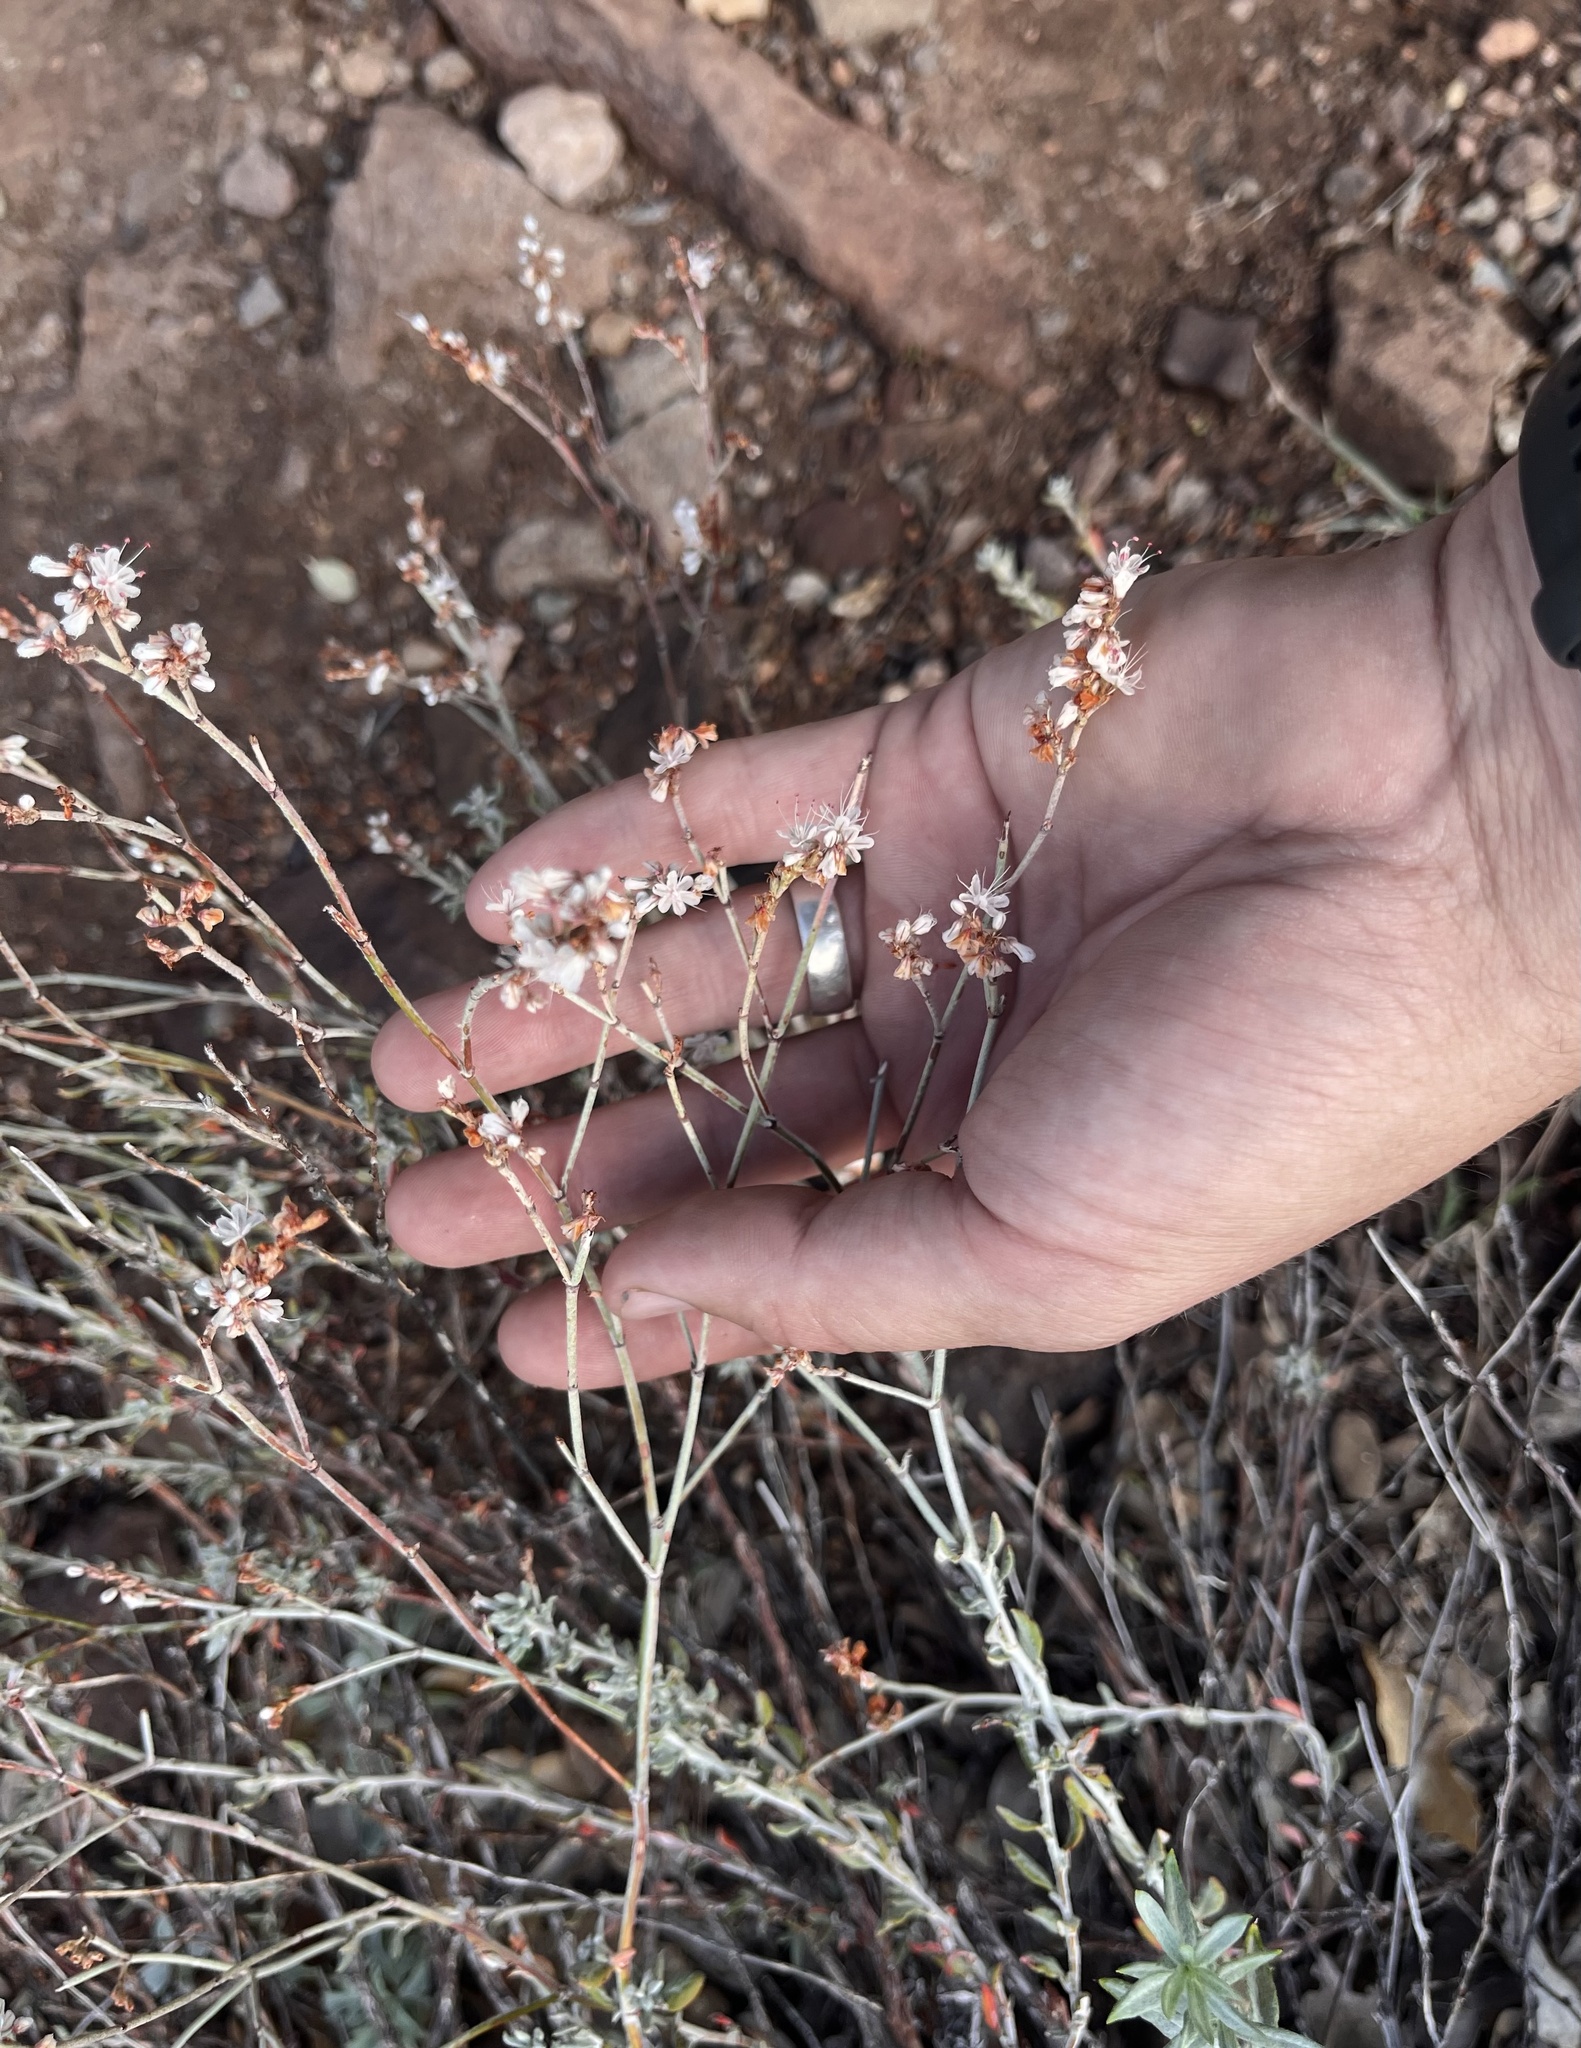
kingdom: Plantae
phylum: Tracheophyta
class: Magnoliopsida
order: Caryophyllales
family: Polygonaceae
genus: Eriogonum
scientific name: Eriogonum wrightii
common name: Bastard-sage
